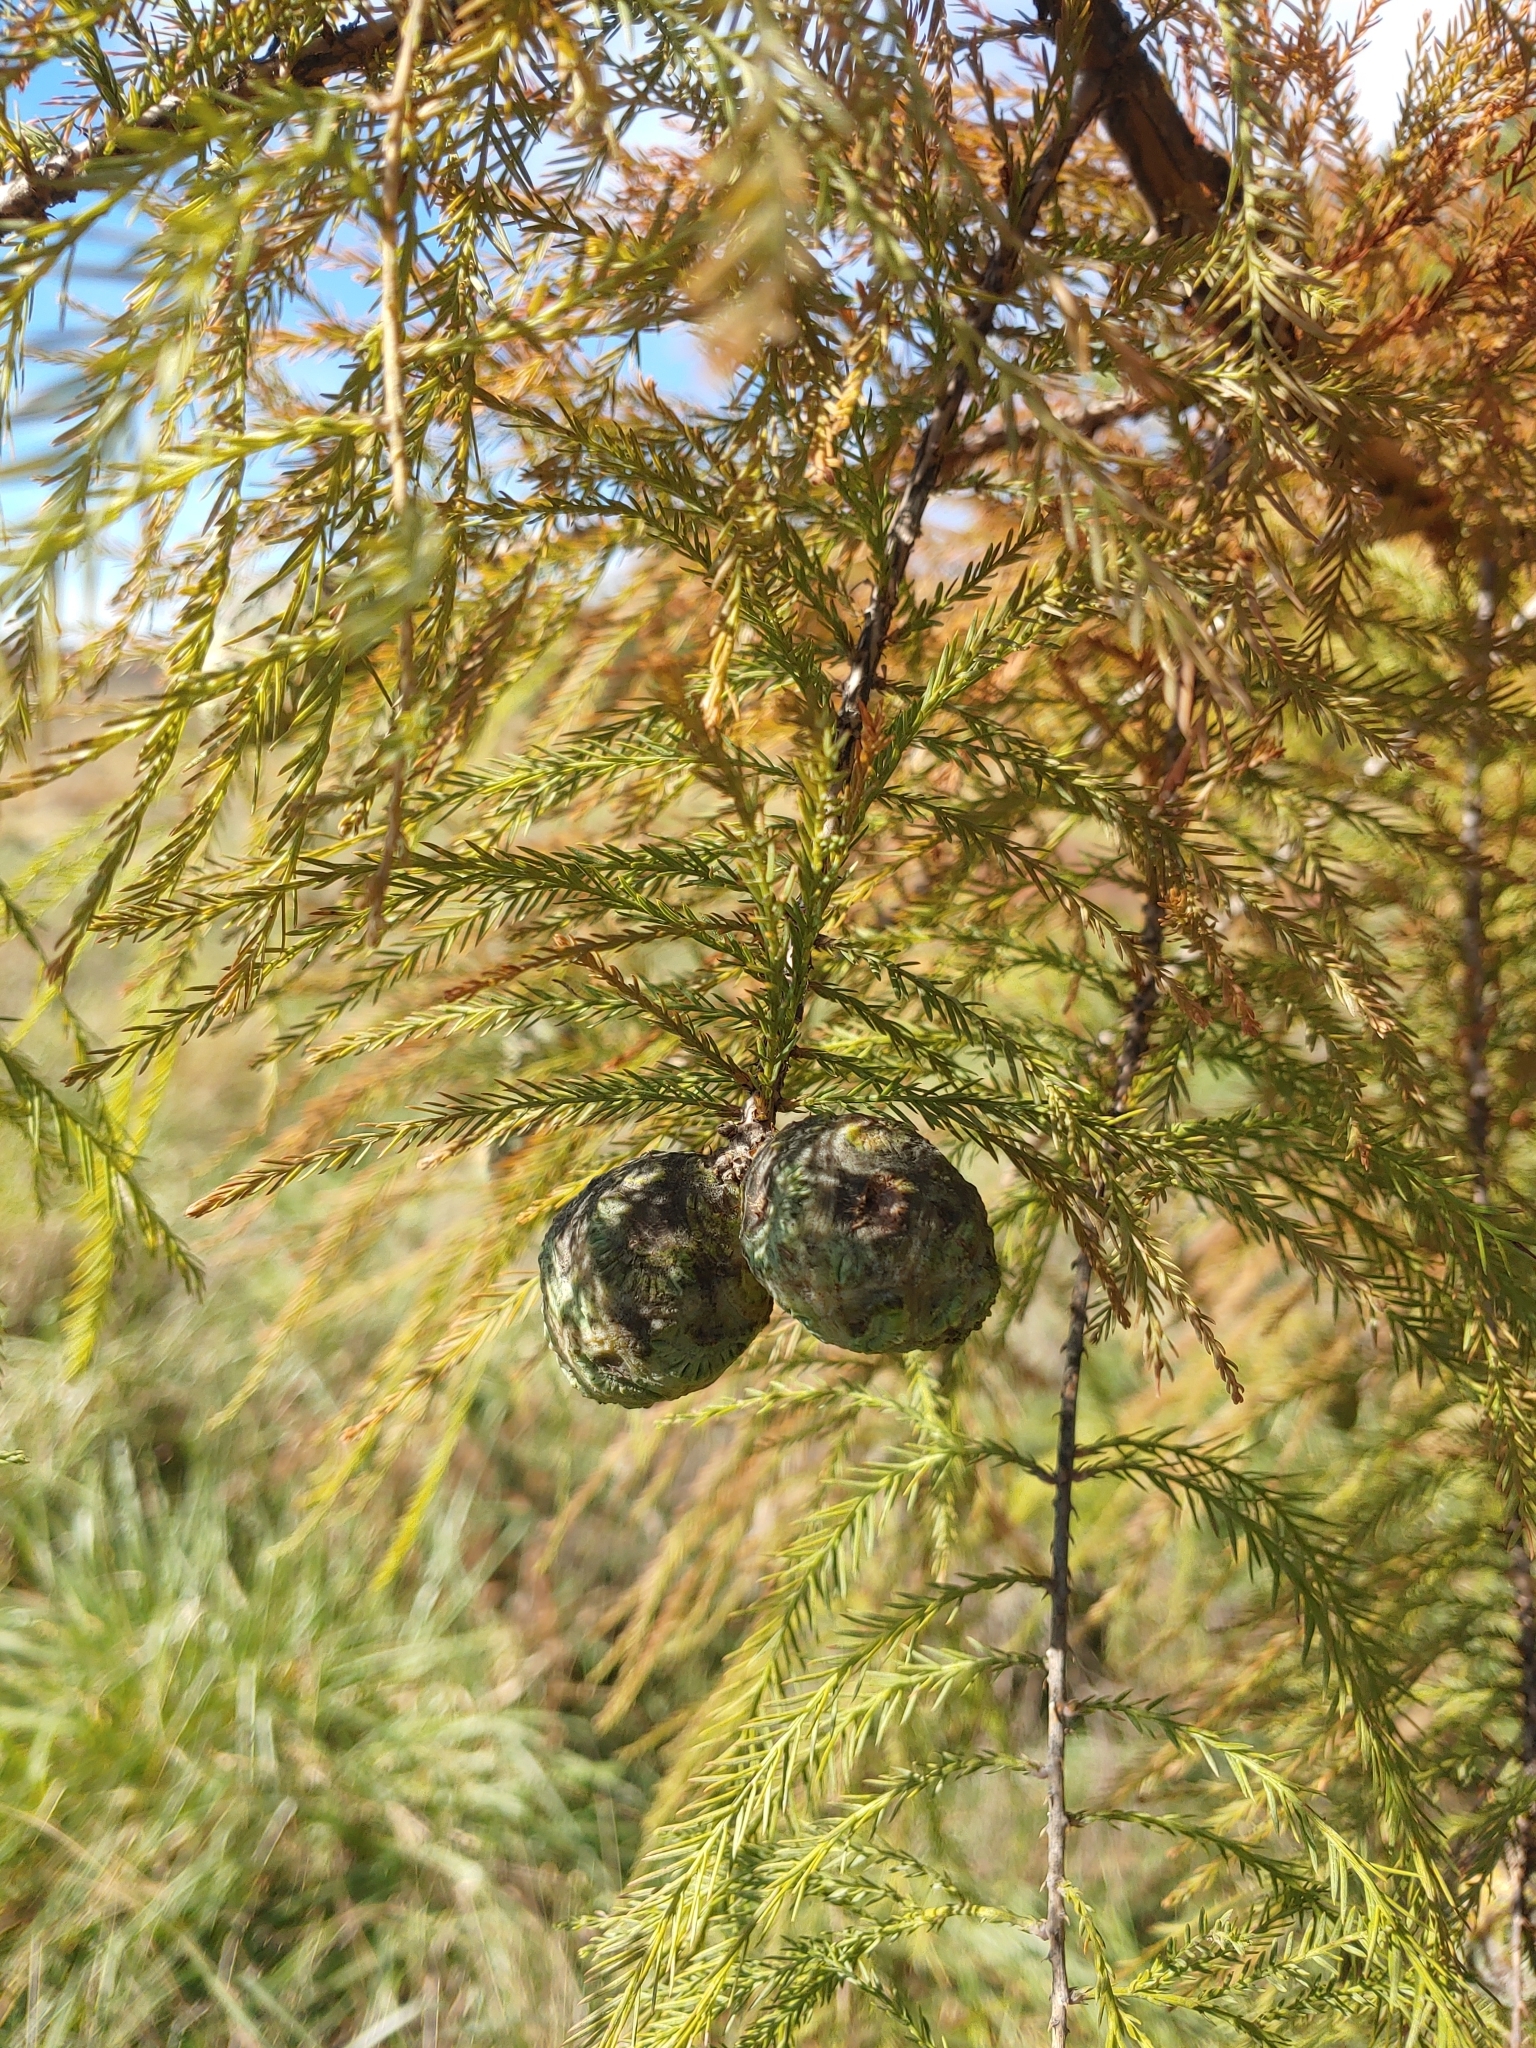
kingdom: Plantae
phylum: Tracheophyta
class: Pinopsida
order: Pinales
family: Cupressaceae
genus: Taxodium
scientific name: Taxodium distichum
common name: Bald cypress
